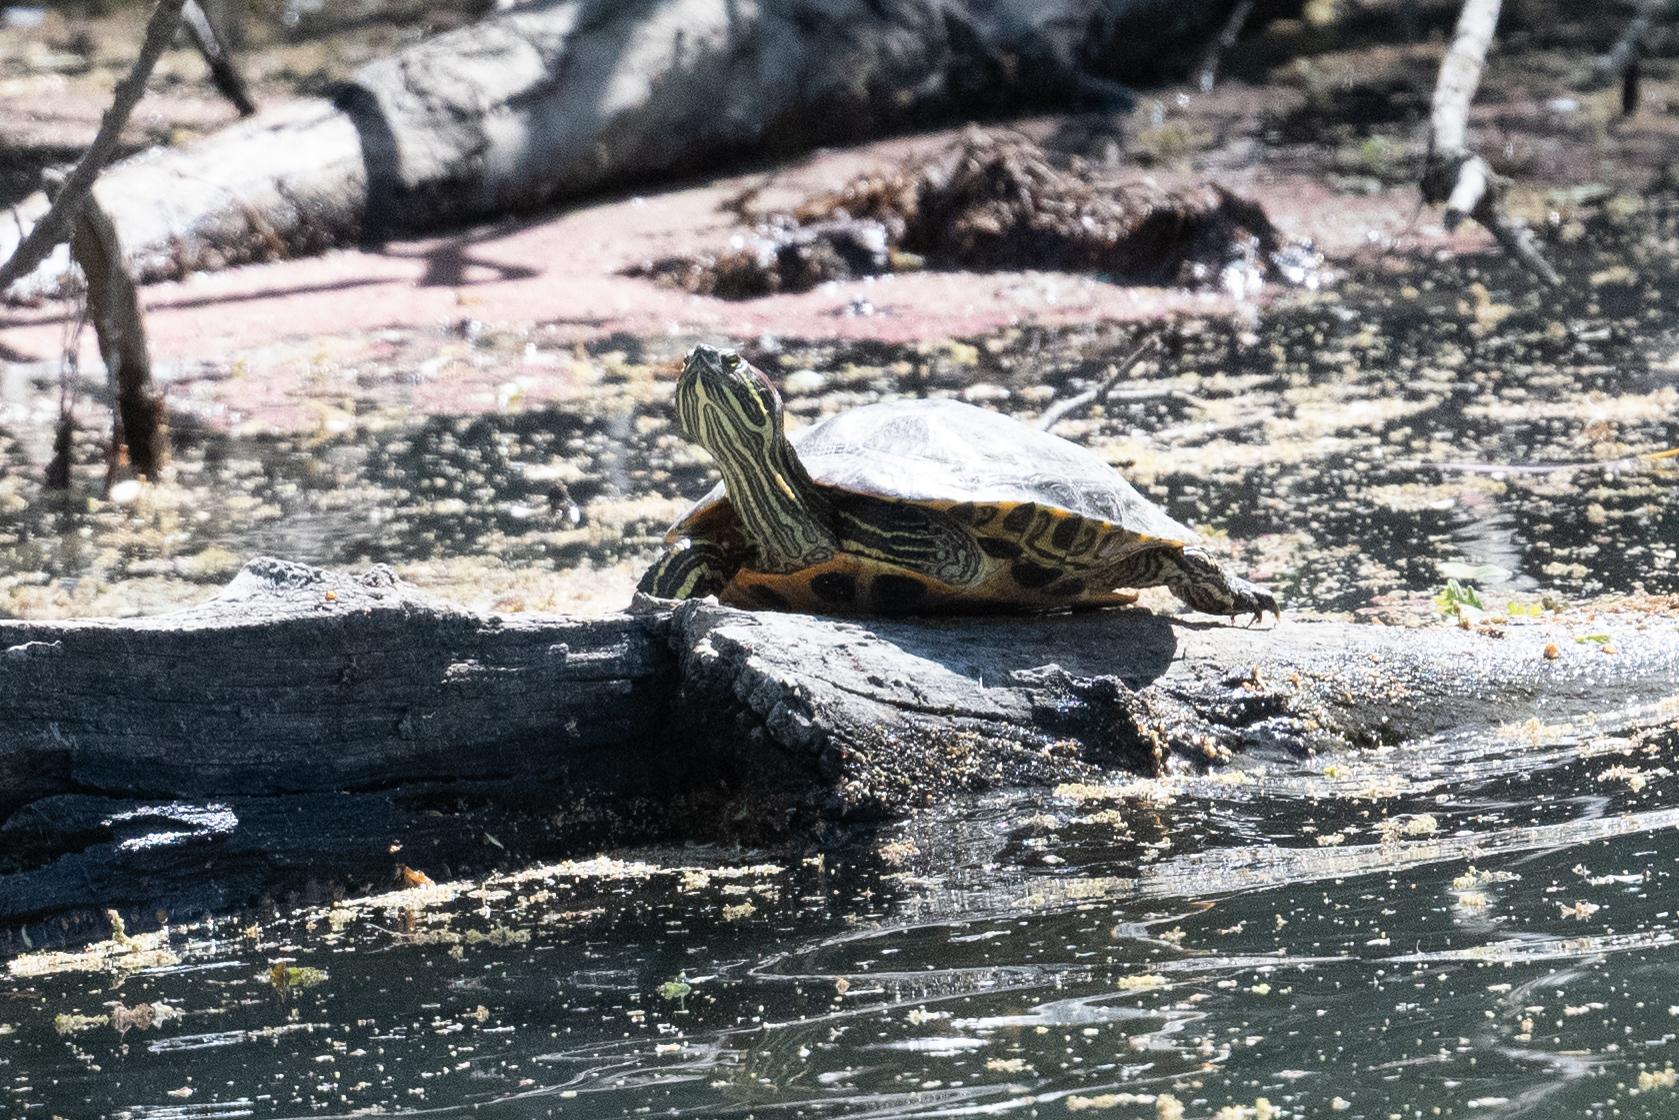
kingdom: Animalia
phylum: Chordata
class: Testudines
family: Emydidae
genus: Trachemys
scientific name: Trachemys scripta
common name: Slider
